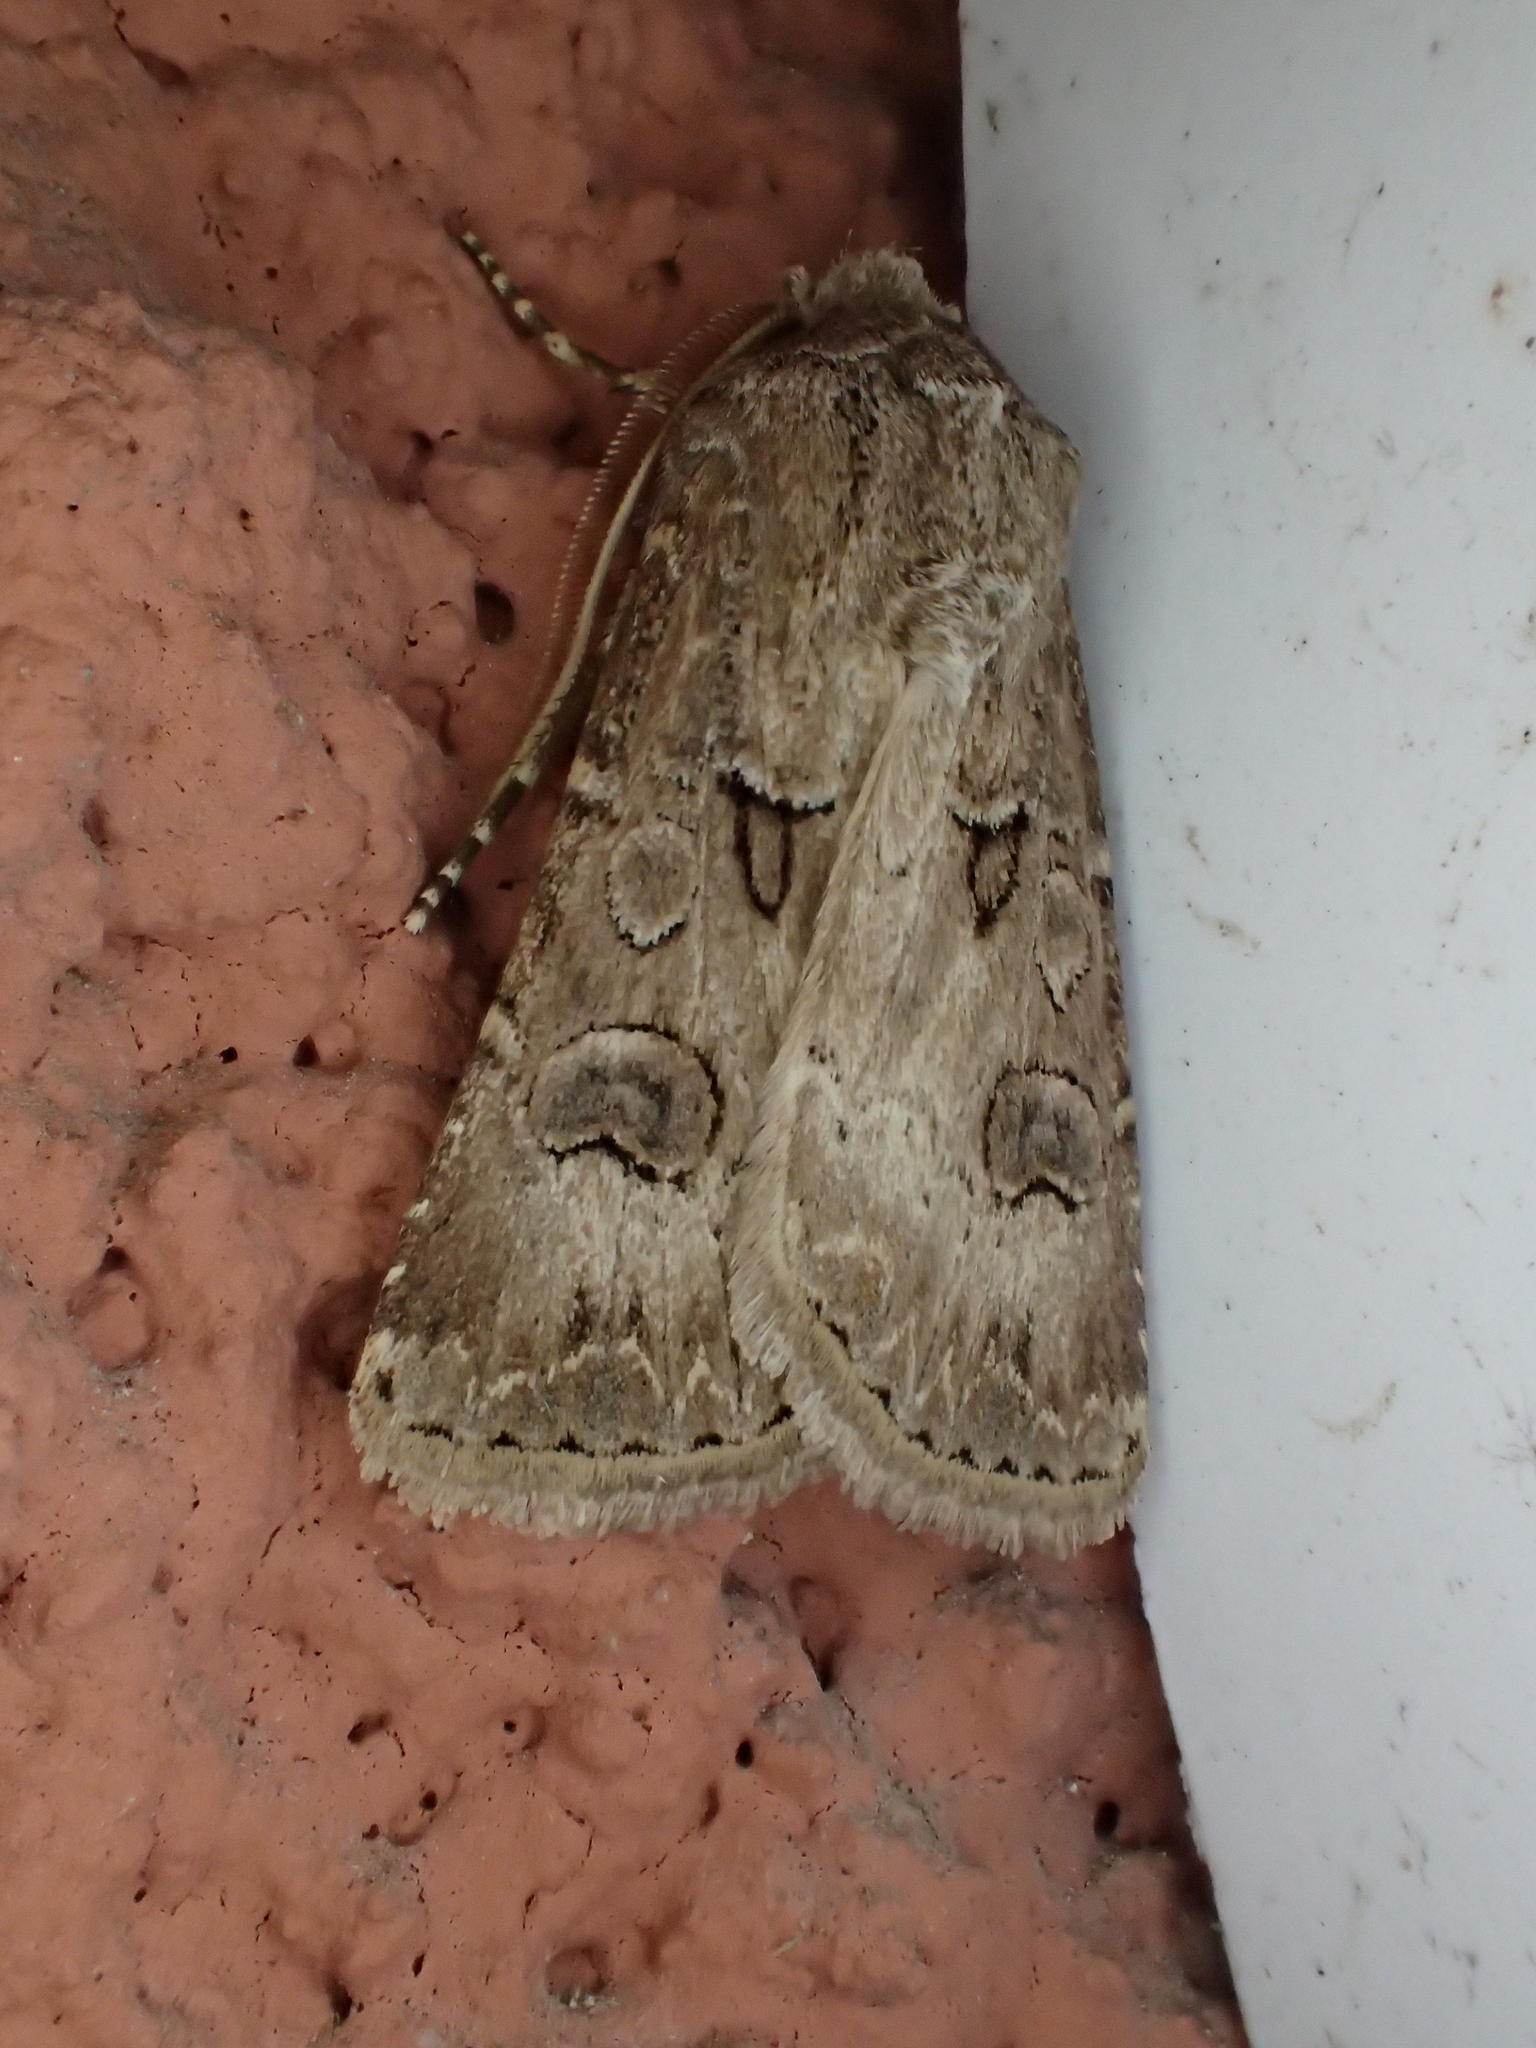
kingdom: Animalia
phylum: Arthropoda
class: Insecta
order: Lepidoptera
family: Noctuidae
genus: Agrotis
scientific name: Agrotis bigramma
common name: Great dart
